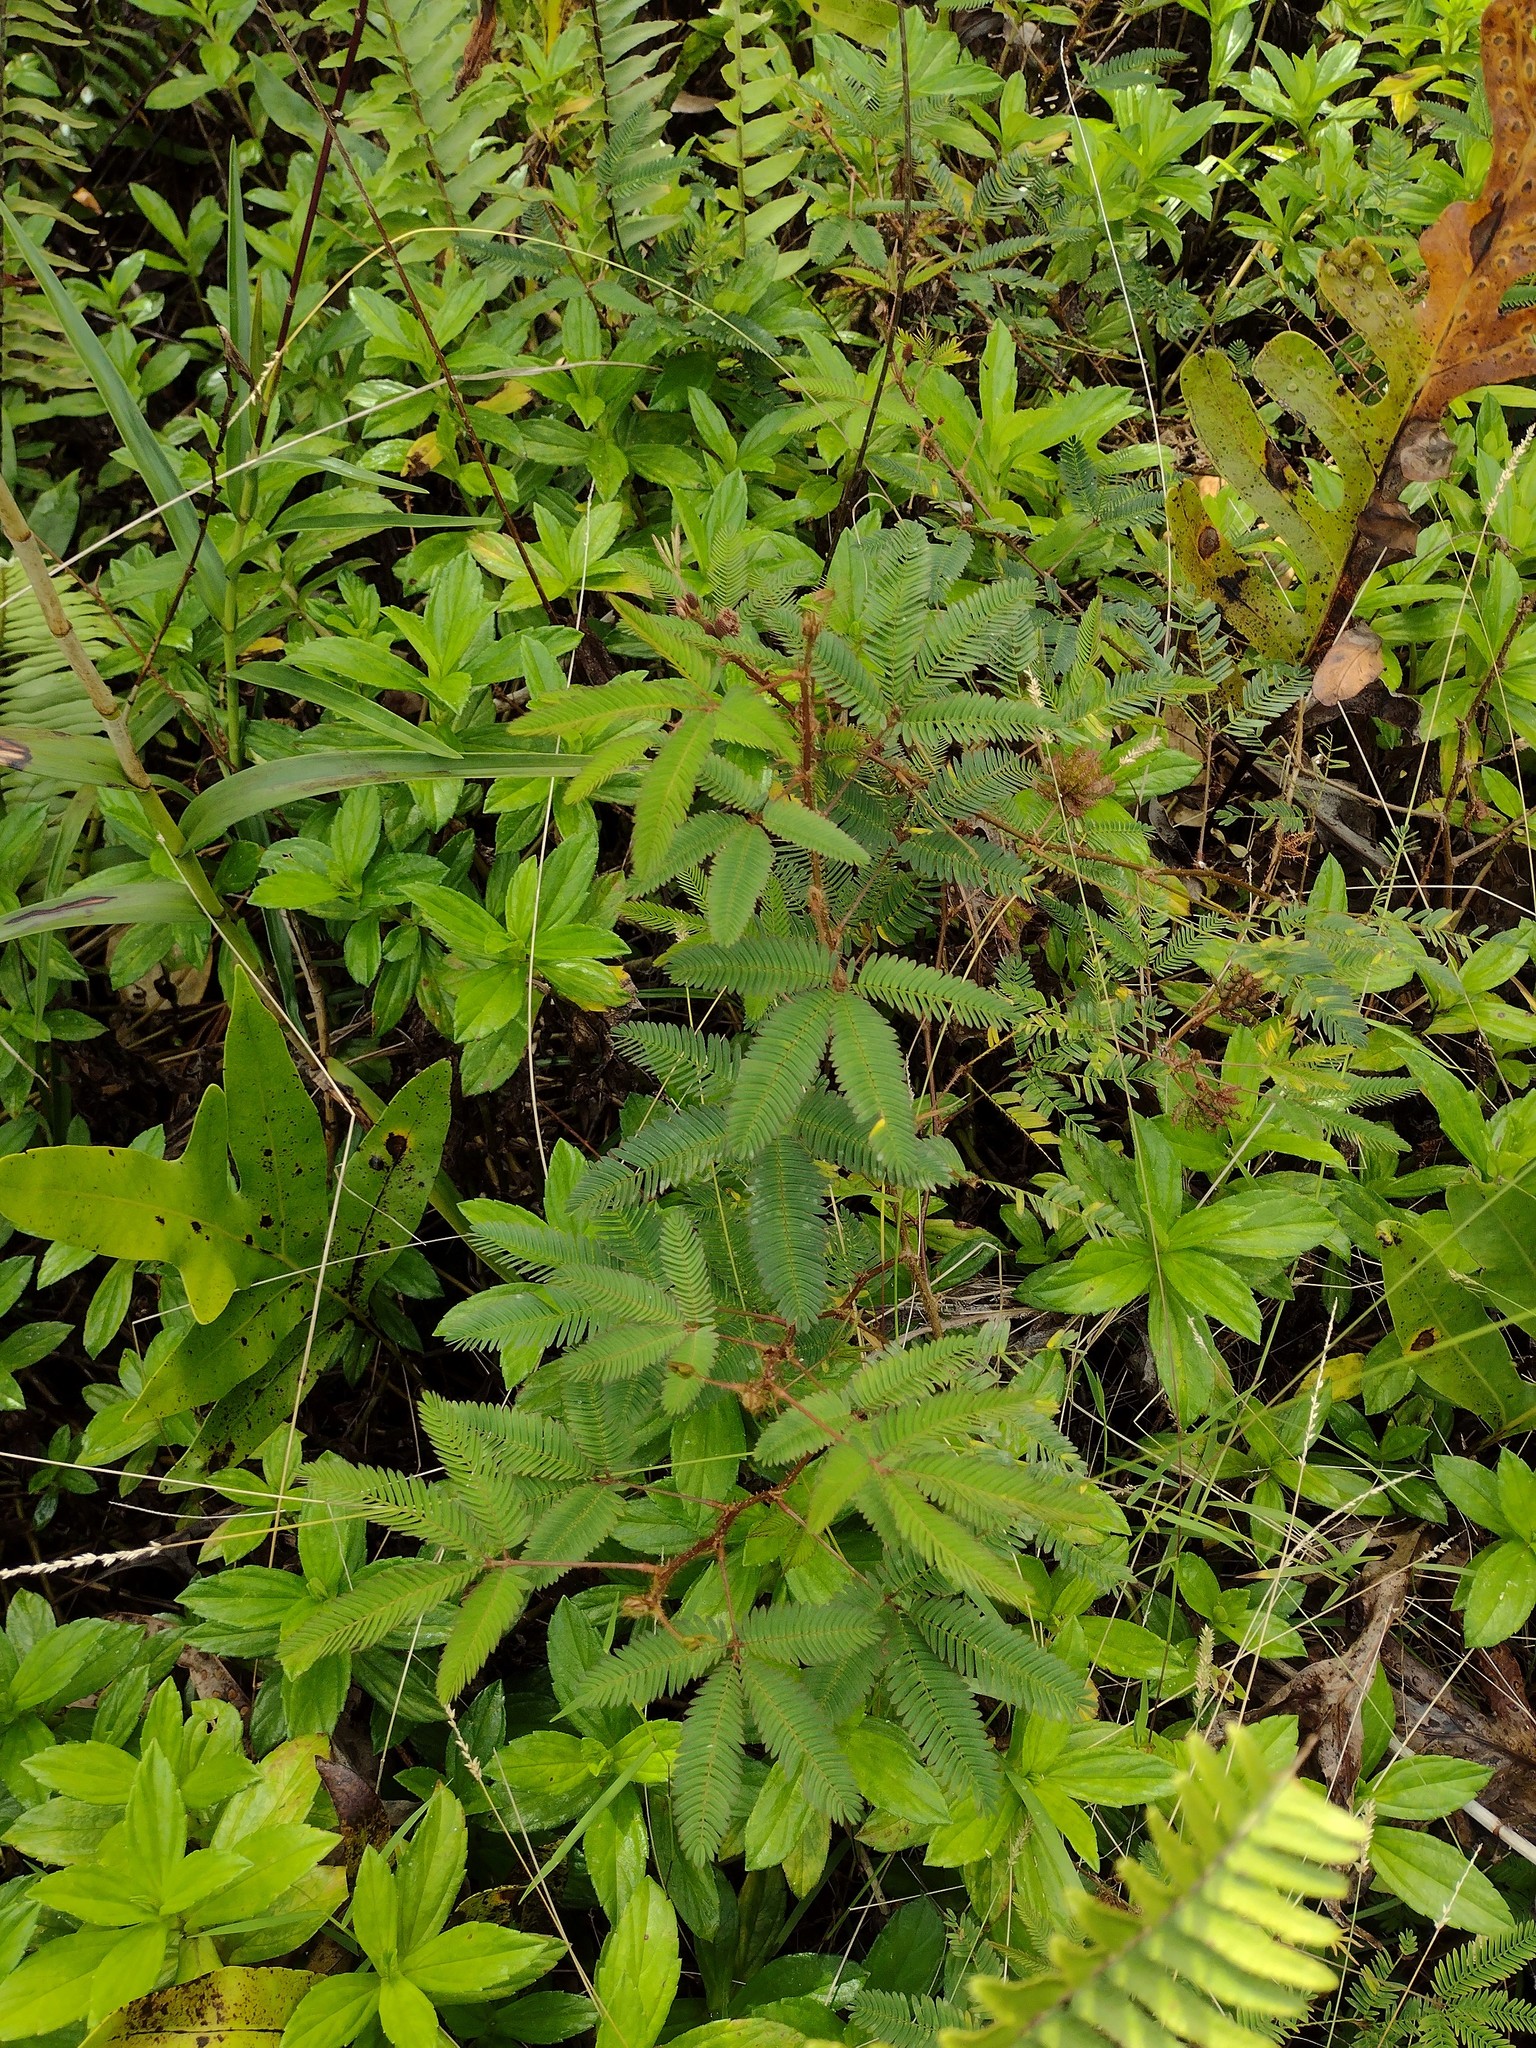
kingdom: Plantae
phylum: Tracheophyta
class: Magnoliopsida
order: Fabales
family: Fabaceae
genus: Mimosa
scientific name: Mimosa pudica
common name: Sensitive plant
